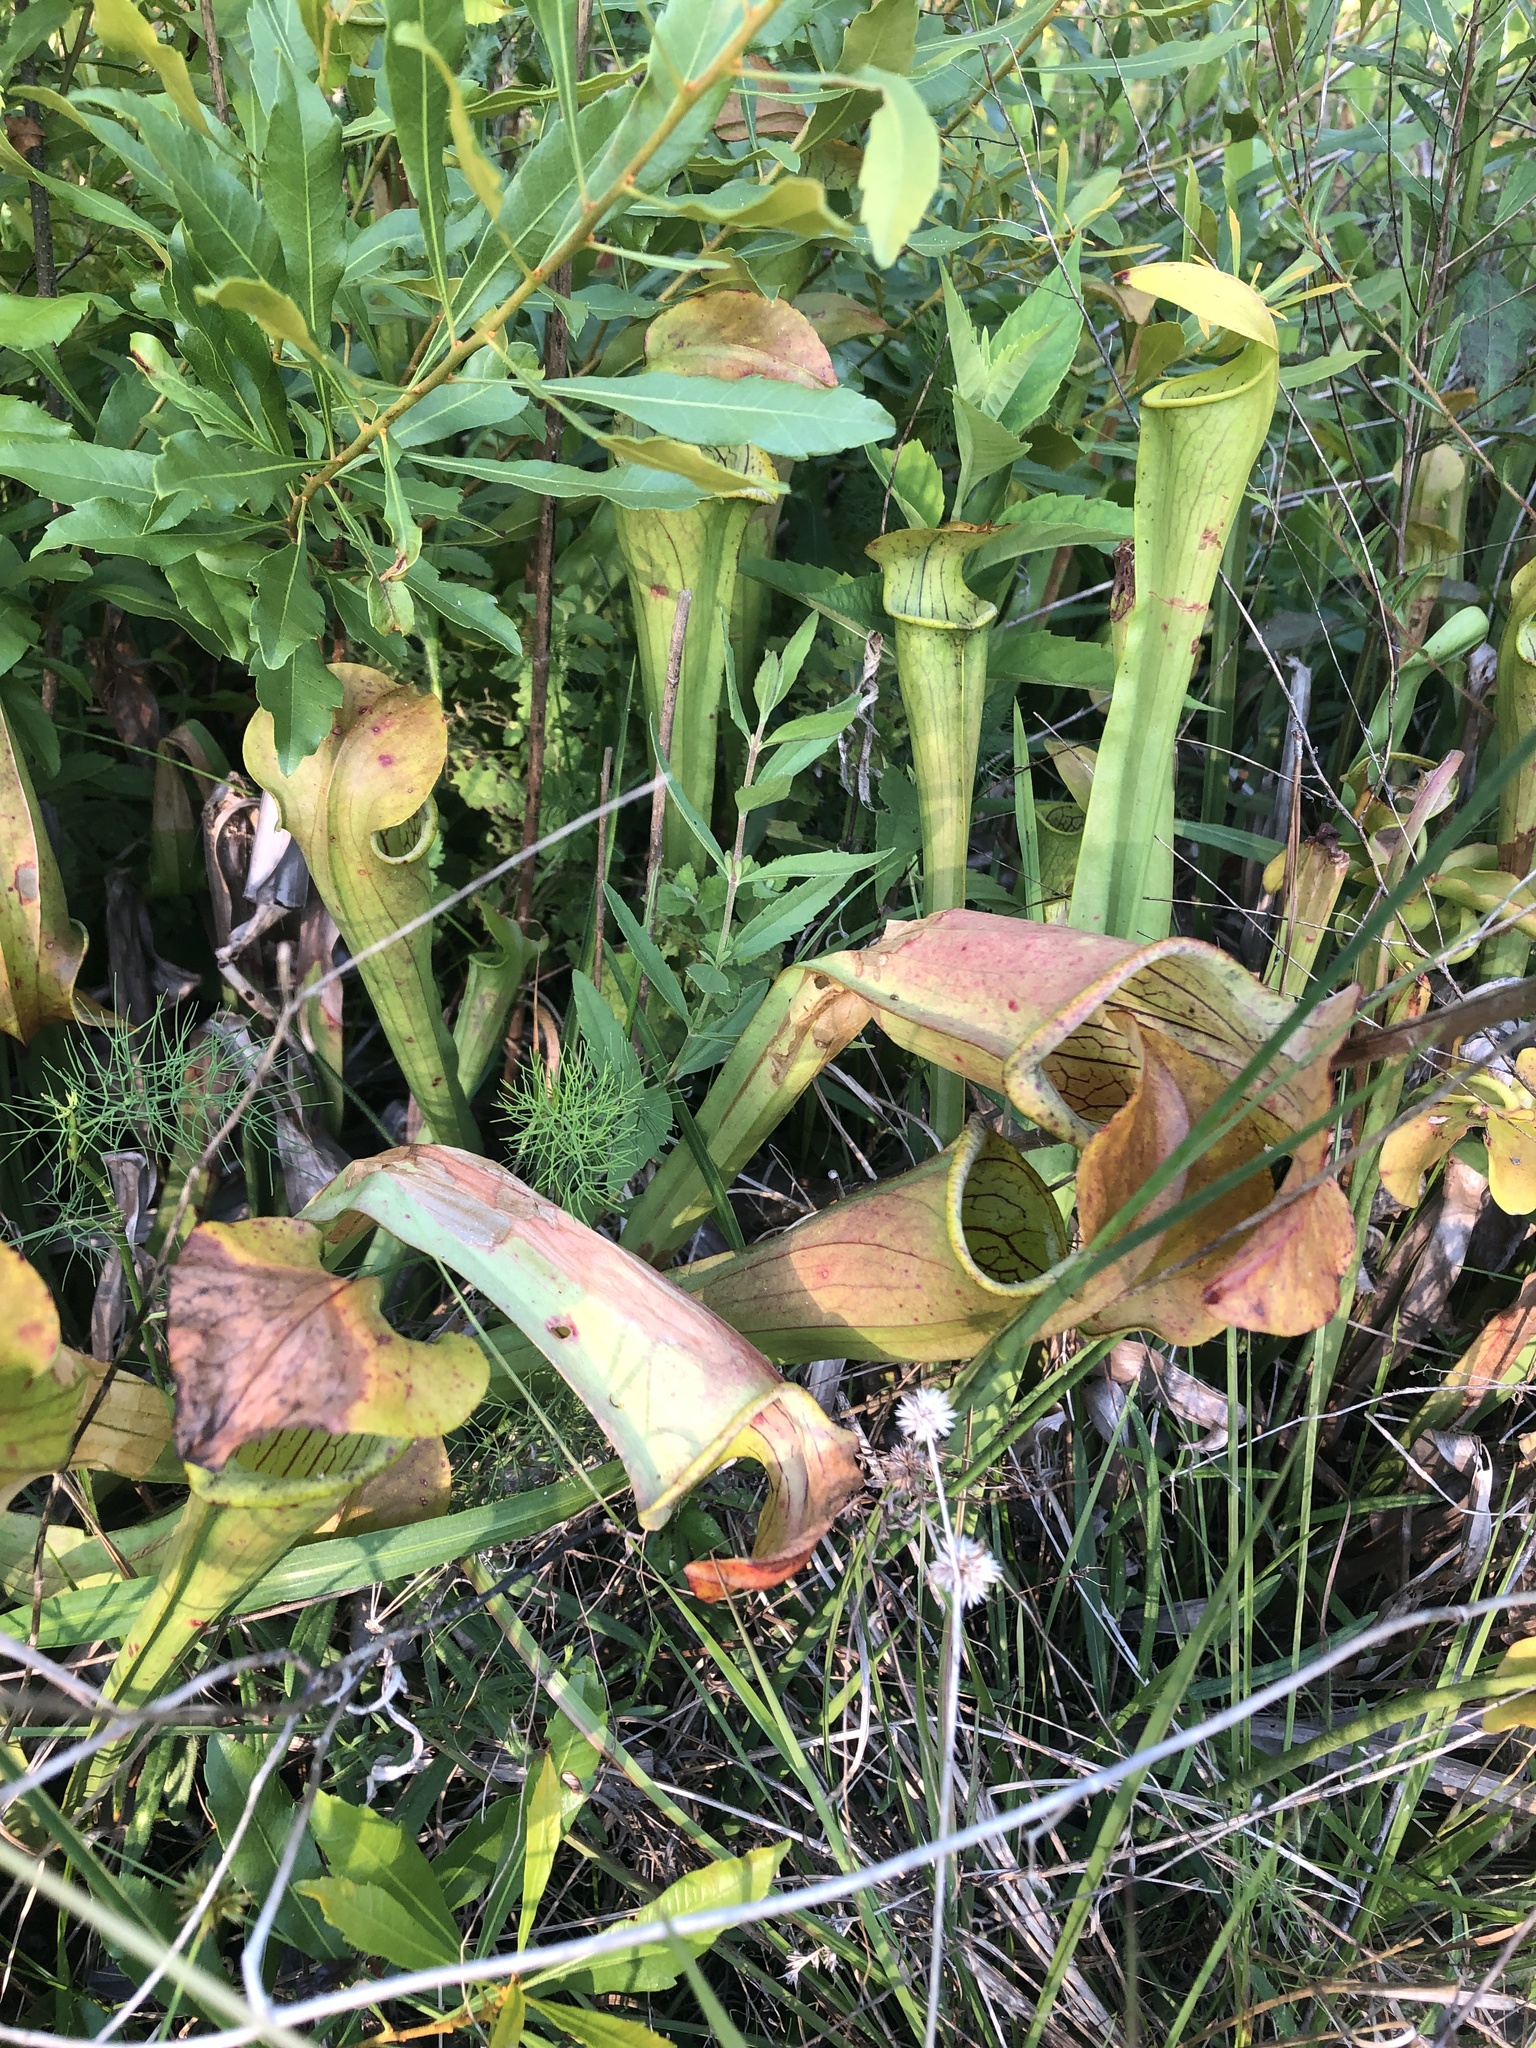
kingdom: Plantae
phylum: Tracheophyta
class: Magnoliopsida
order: Ericales
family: Sarraceniaceae
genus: Sarracenia
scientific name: Sarracenia alata
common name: Yellow trumpets
